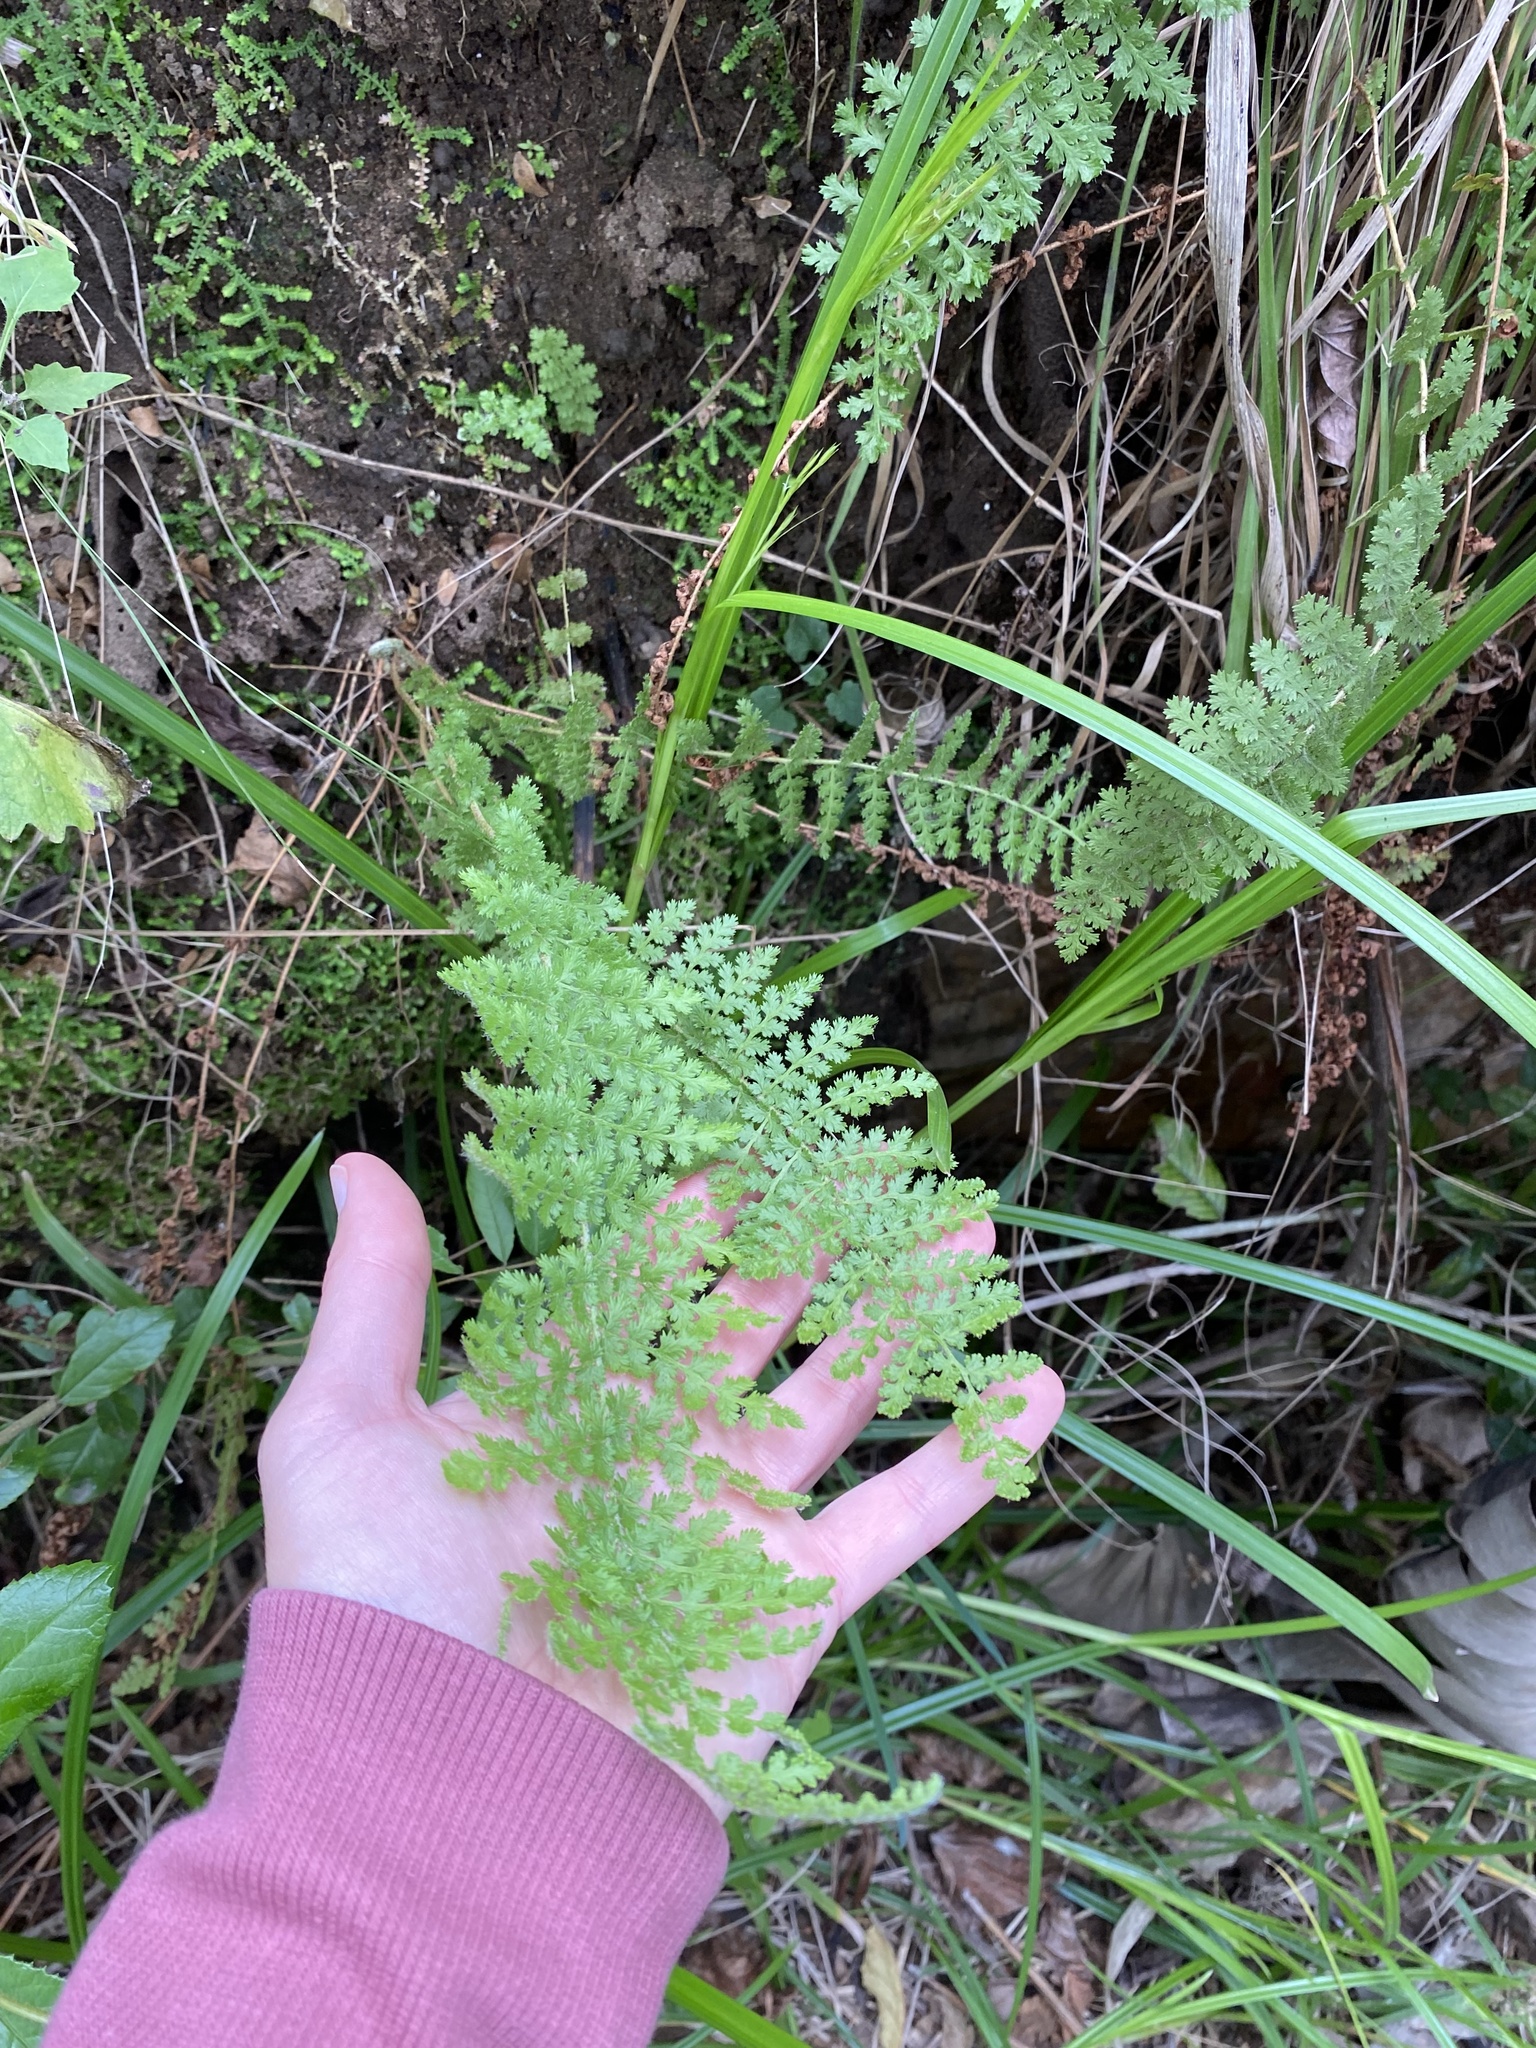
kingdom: Plantae
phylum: Tracheophyta
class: Polypodiopsida
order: Schizaeales
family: Anemiaceae
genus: Anemia
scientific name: Anemia vestita
